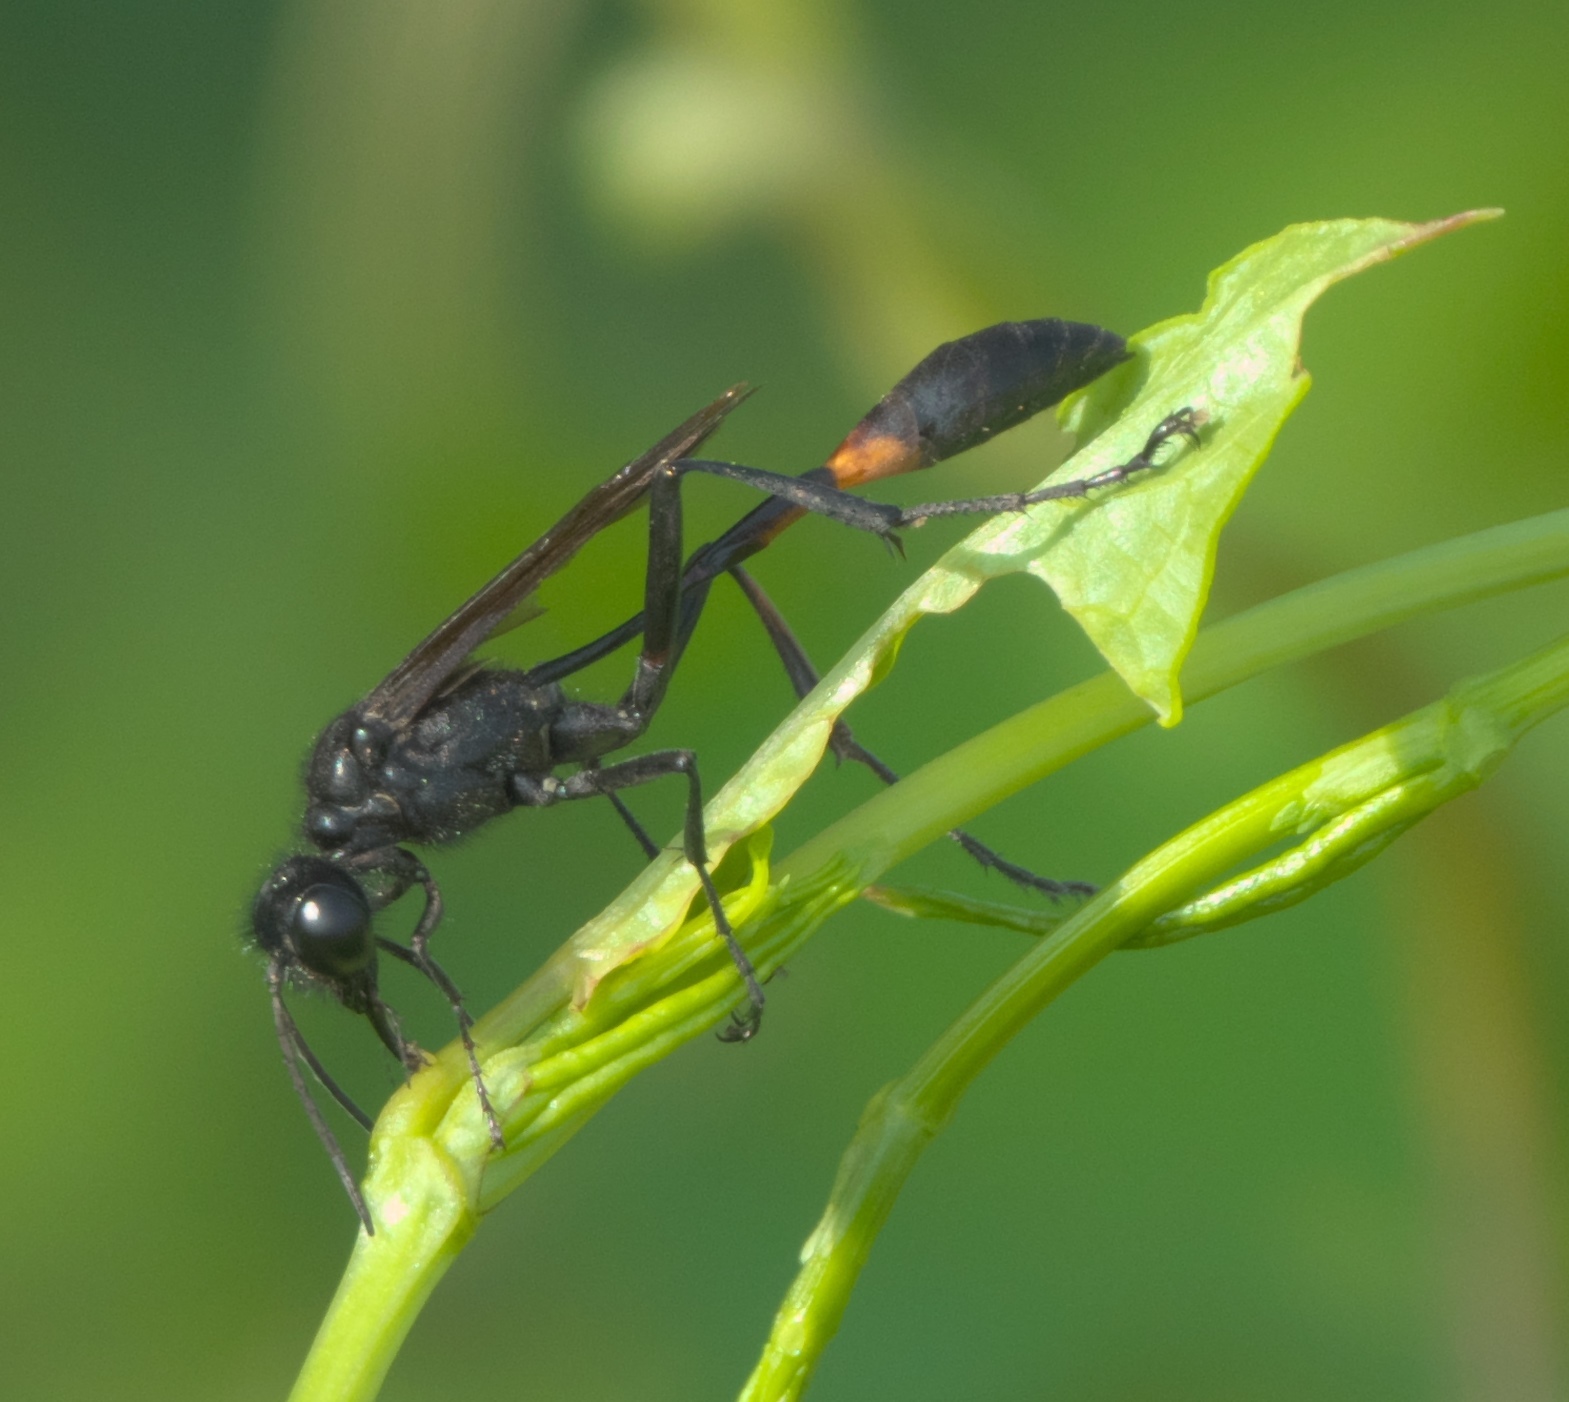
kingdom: Animalia
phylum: Arthropoda
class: Insecta
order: Hymenoptera
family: Sphecidae
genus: Ammophila
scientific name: Ammophila nigricans
